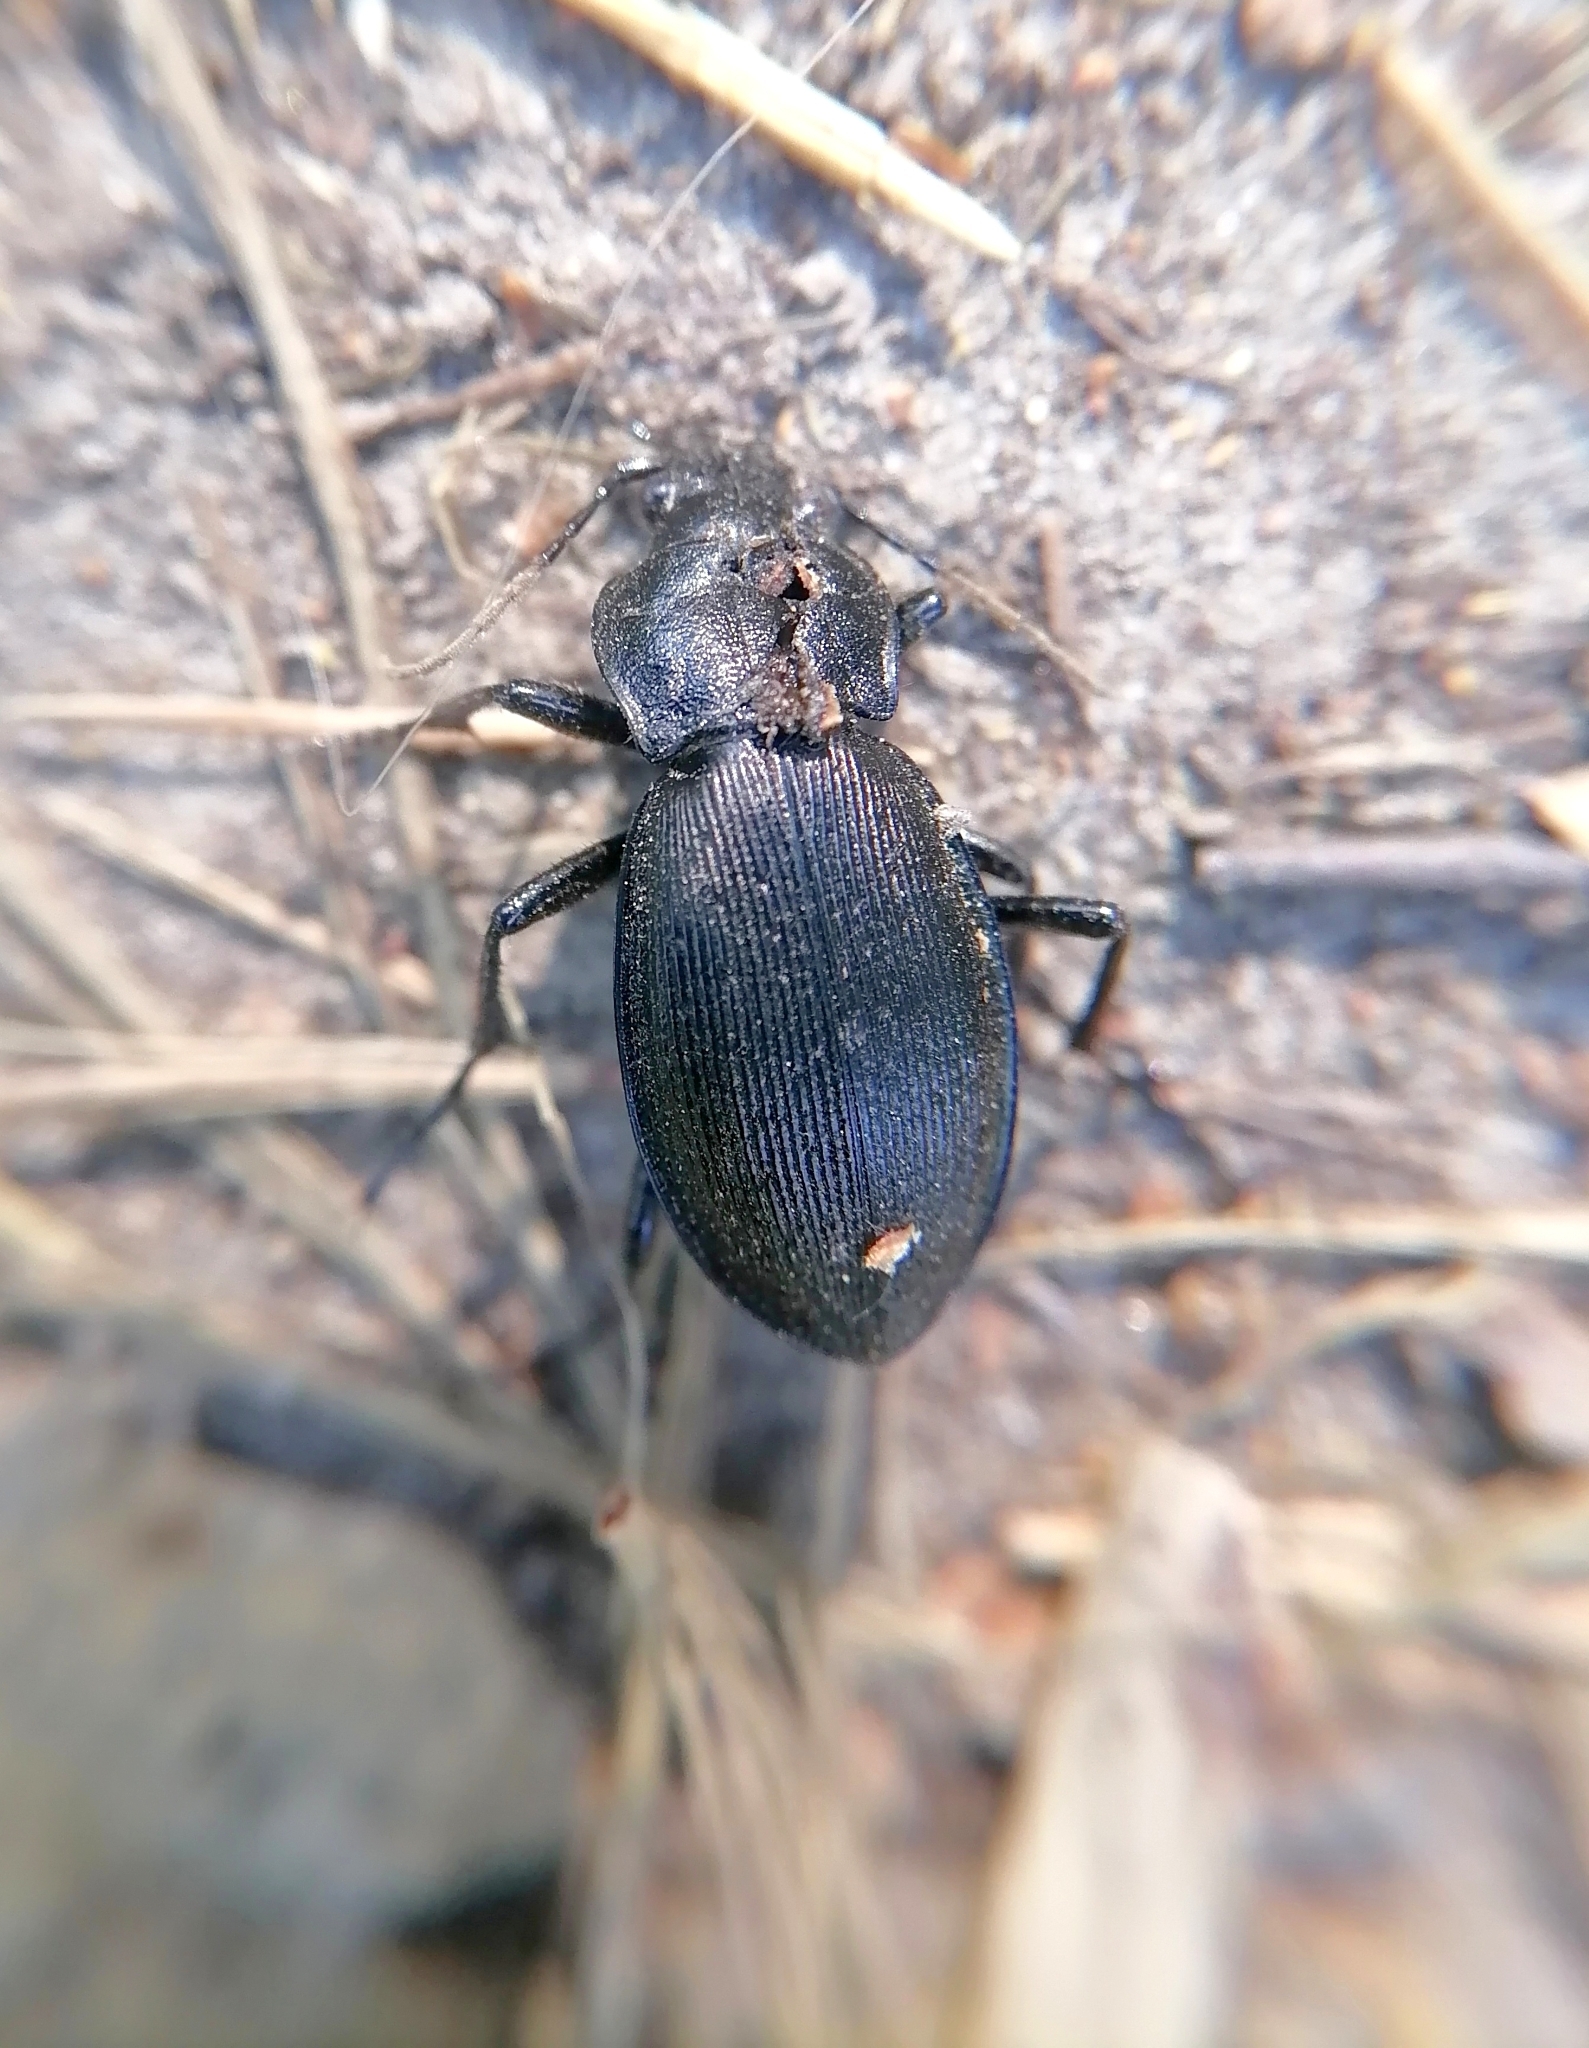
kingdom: Animalia
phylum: Arthropoda
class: Insecta
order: Coleoptera
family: Carabidae
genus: Carabus
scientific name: Carabus regalis
